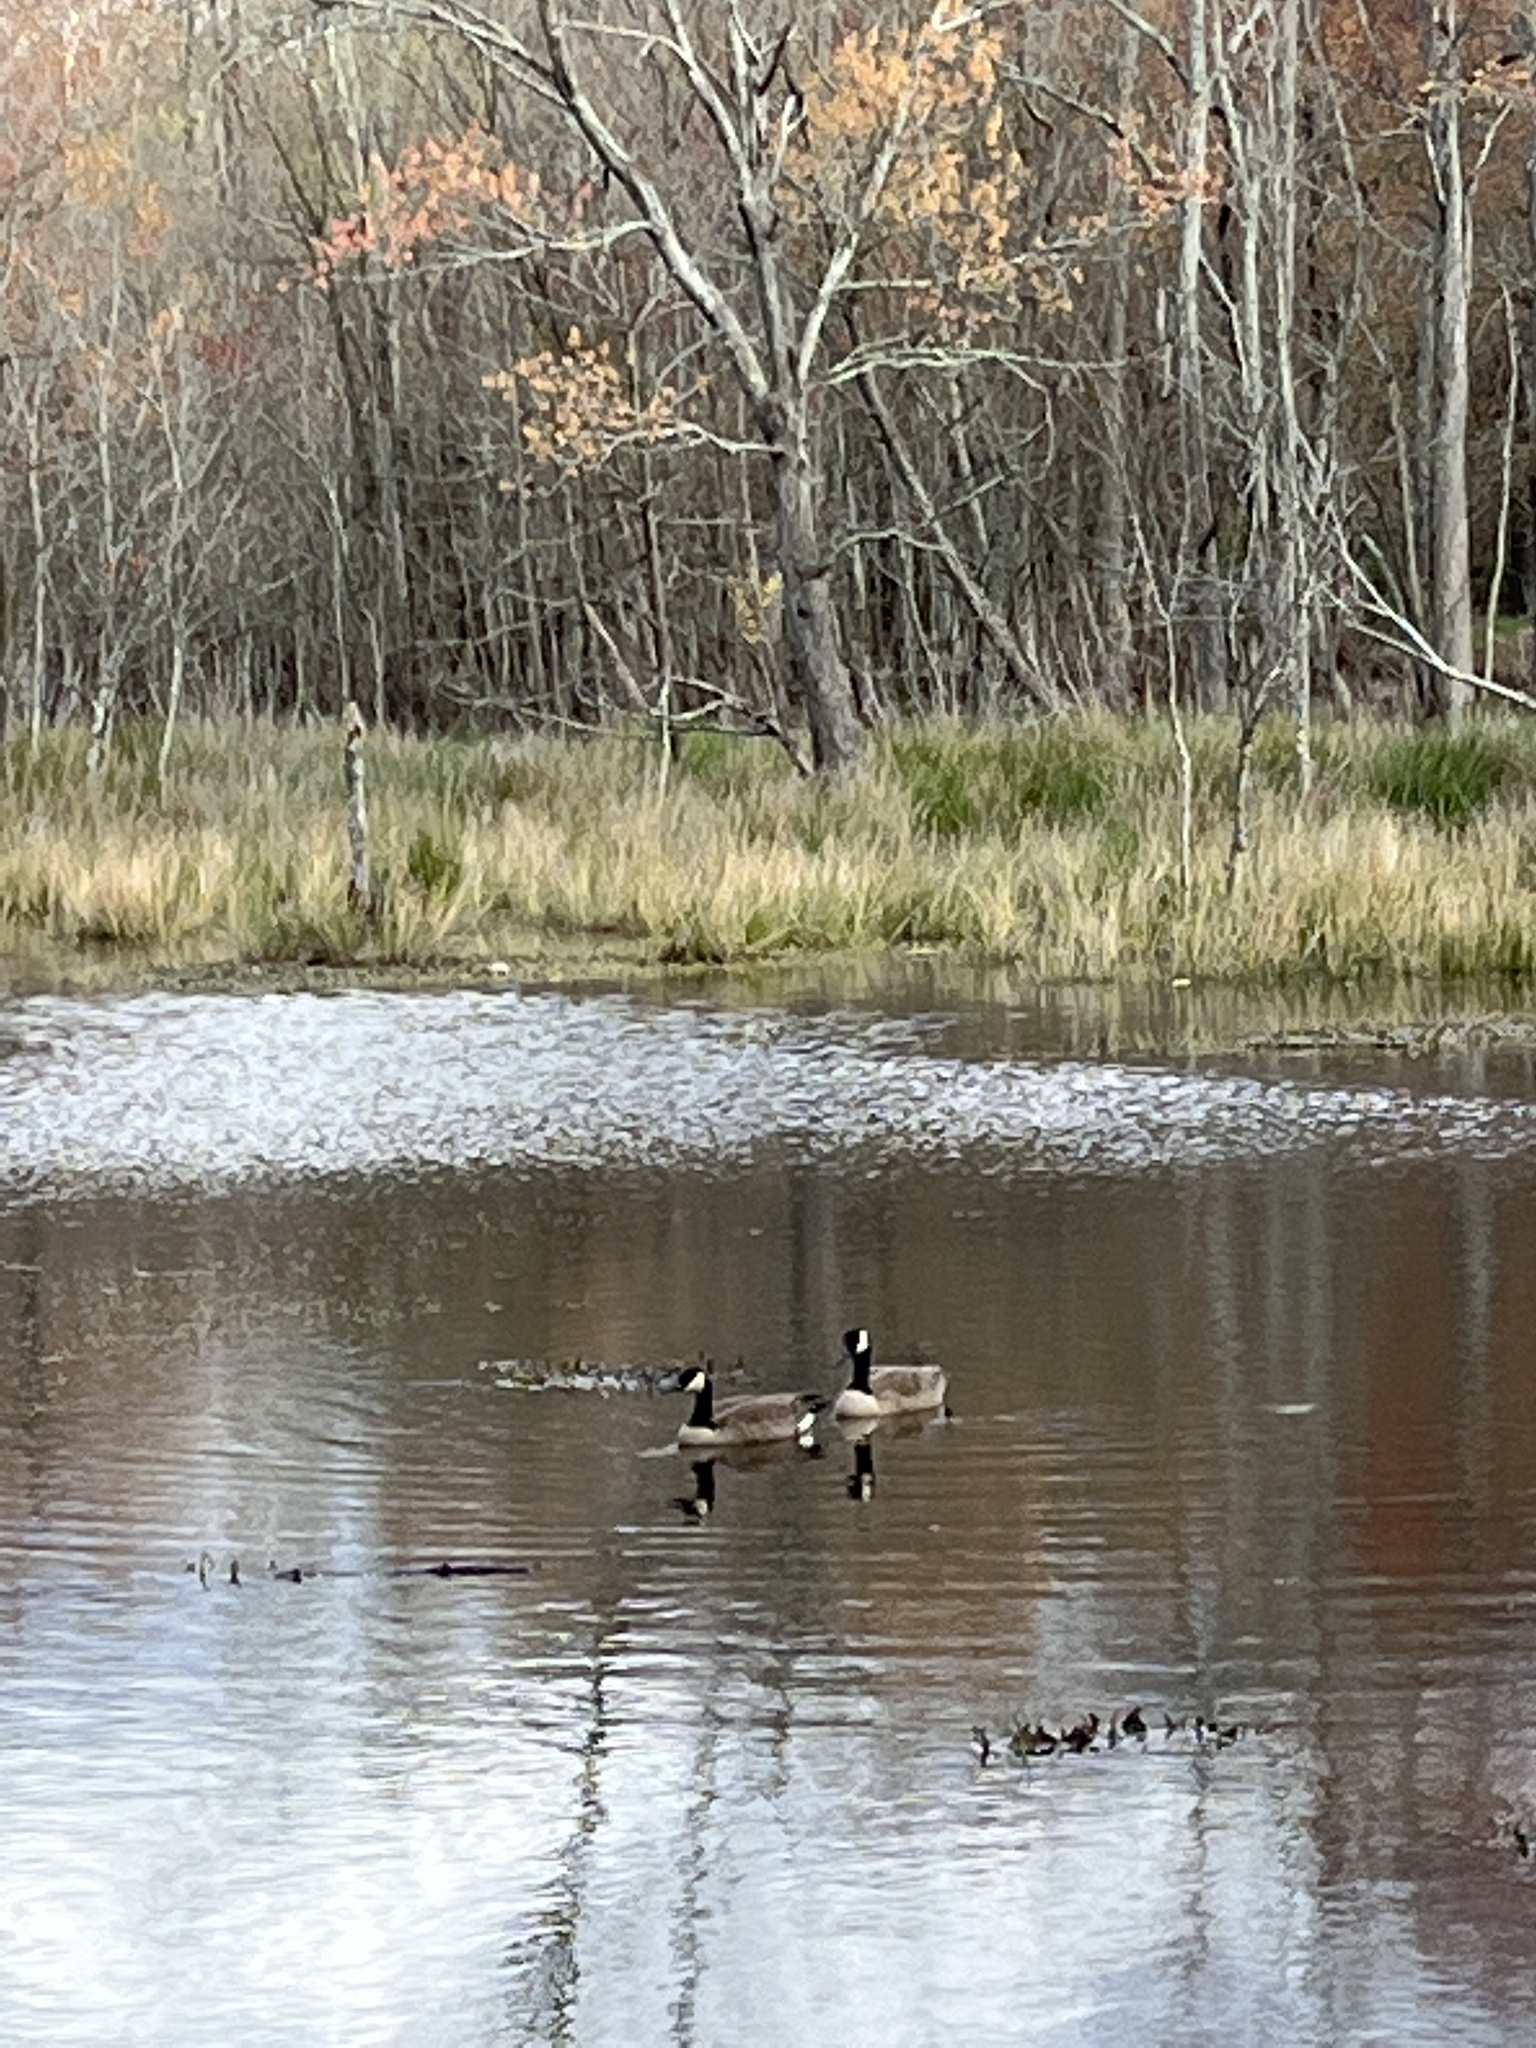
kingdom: Animalia
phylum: Chordata
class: Aves
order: Anseriformes
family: Anatidae
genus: Branta
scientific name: Branta canadensis
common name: Canada goose
